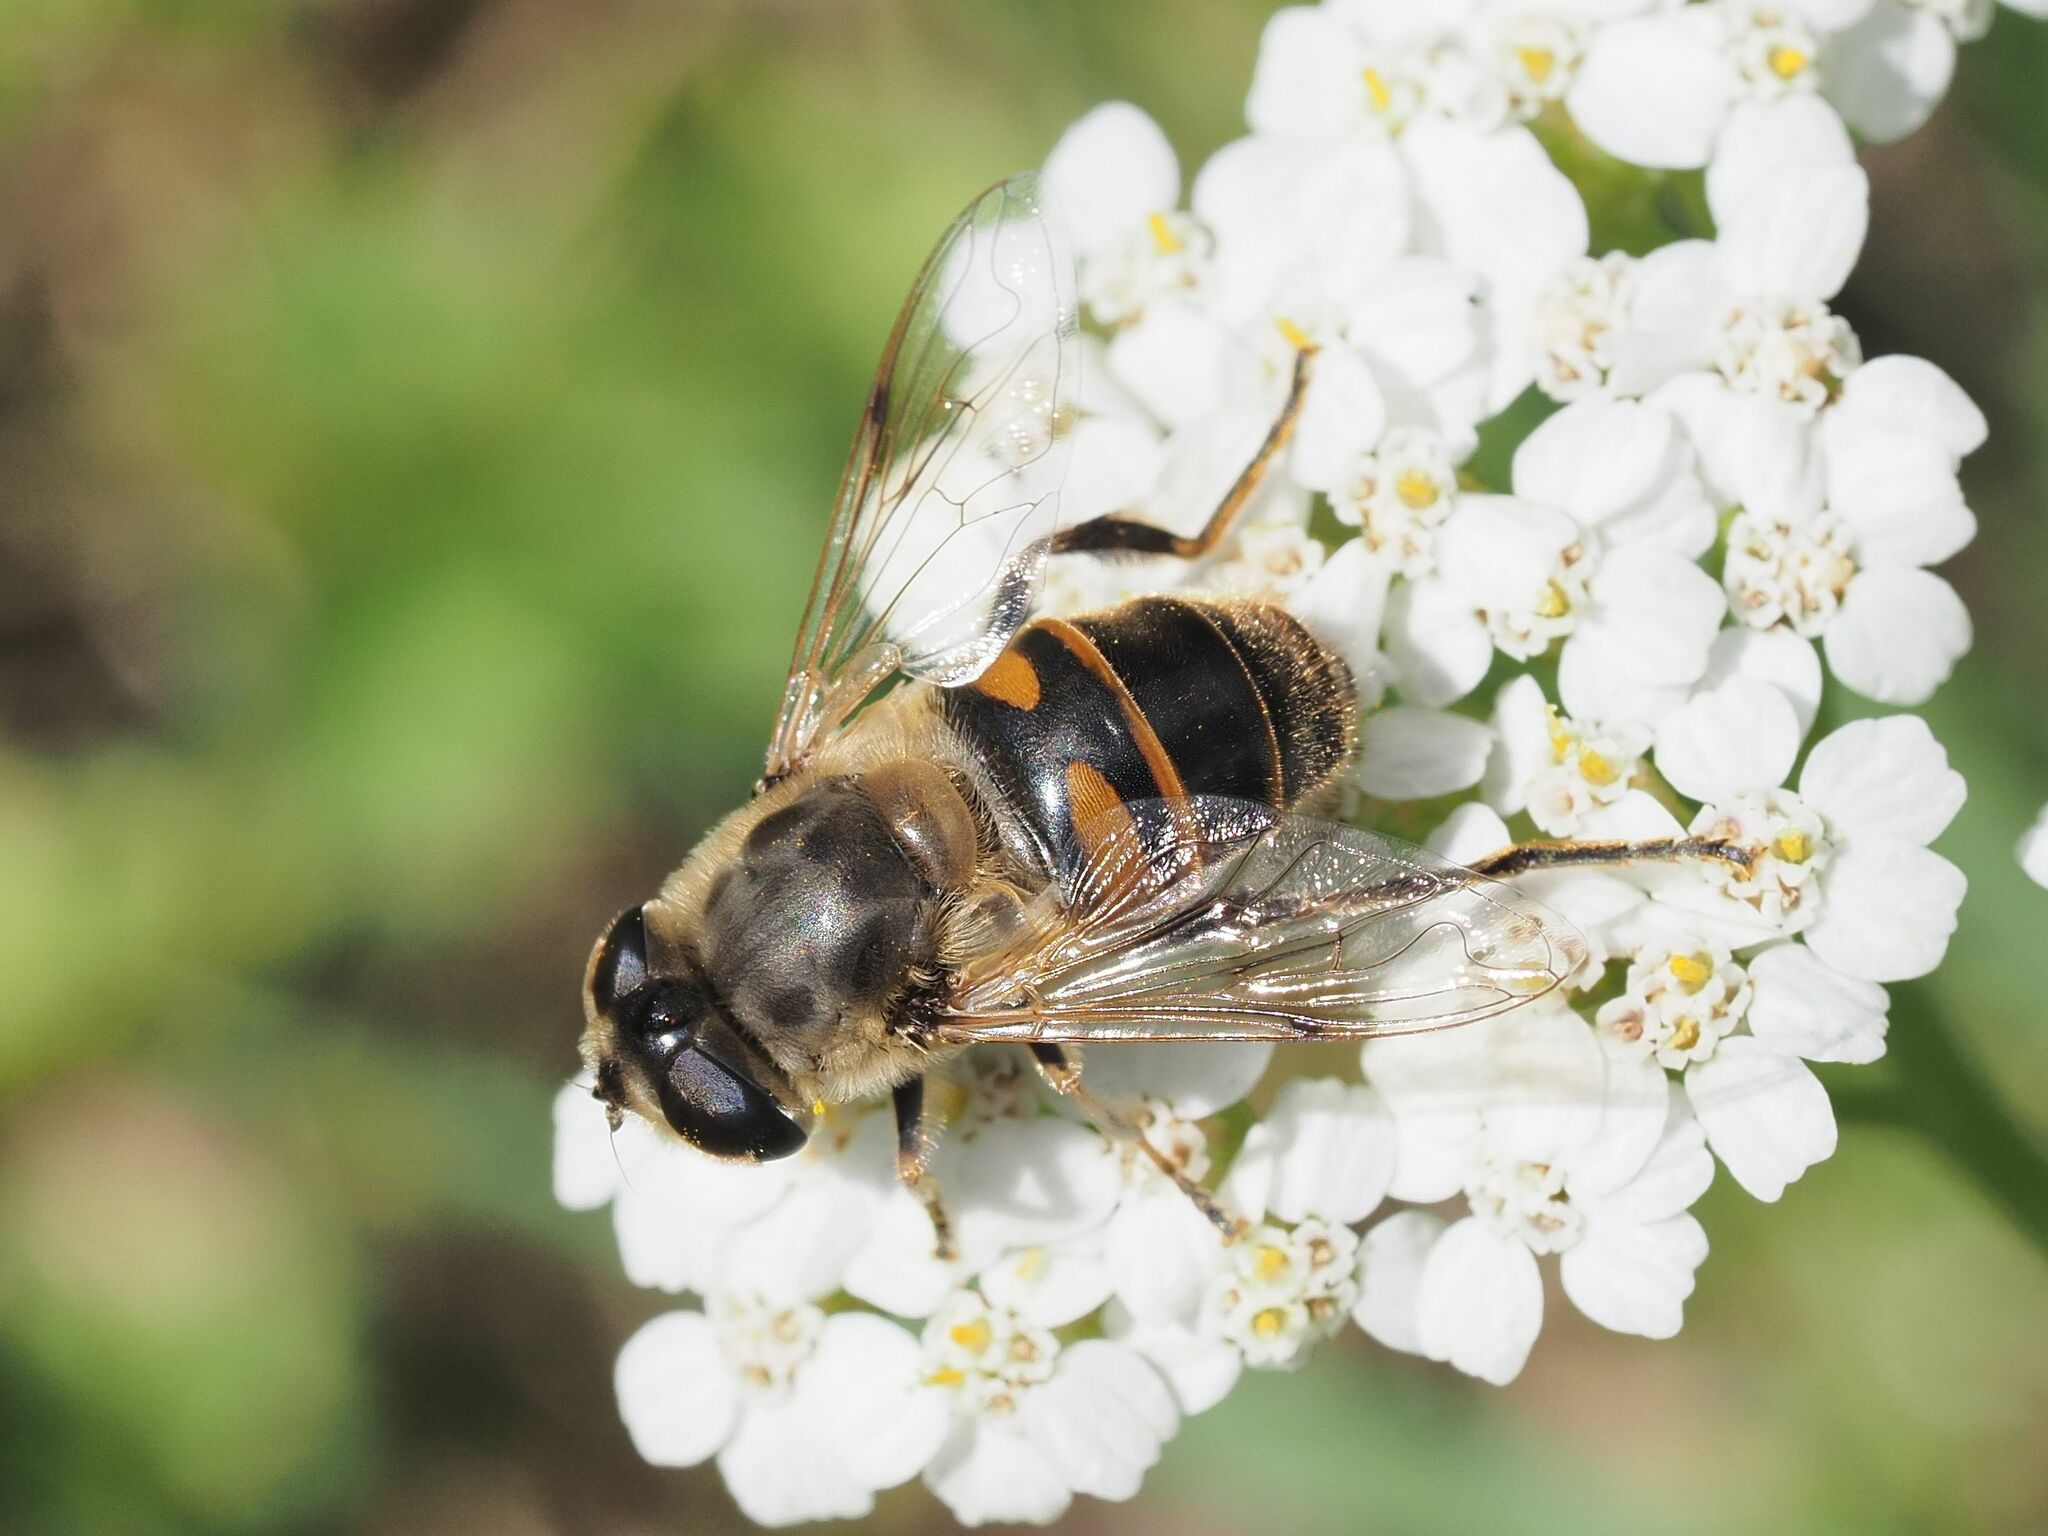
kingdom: Animalia
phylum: Arthropoda
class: Insecta
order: Diptera
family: Syrphidae
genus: Eristalis
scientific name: Eristalis tenax
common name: Drone fly
